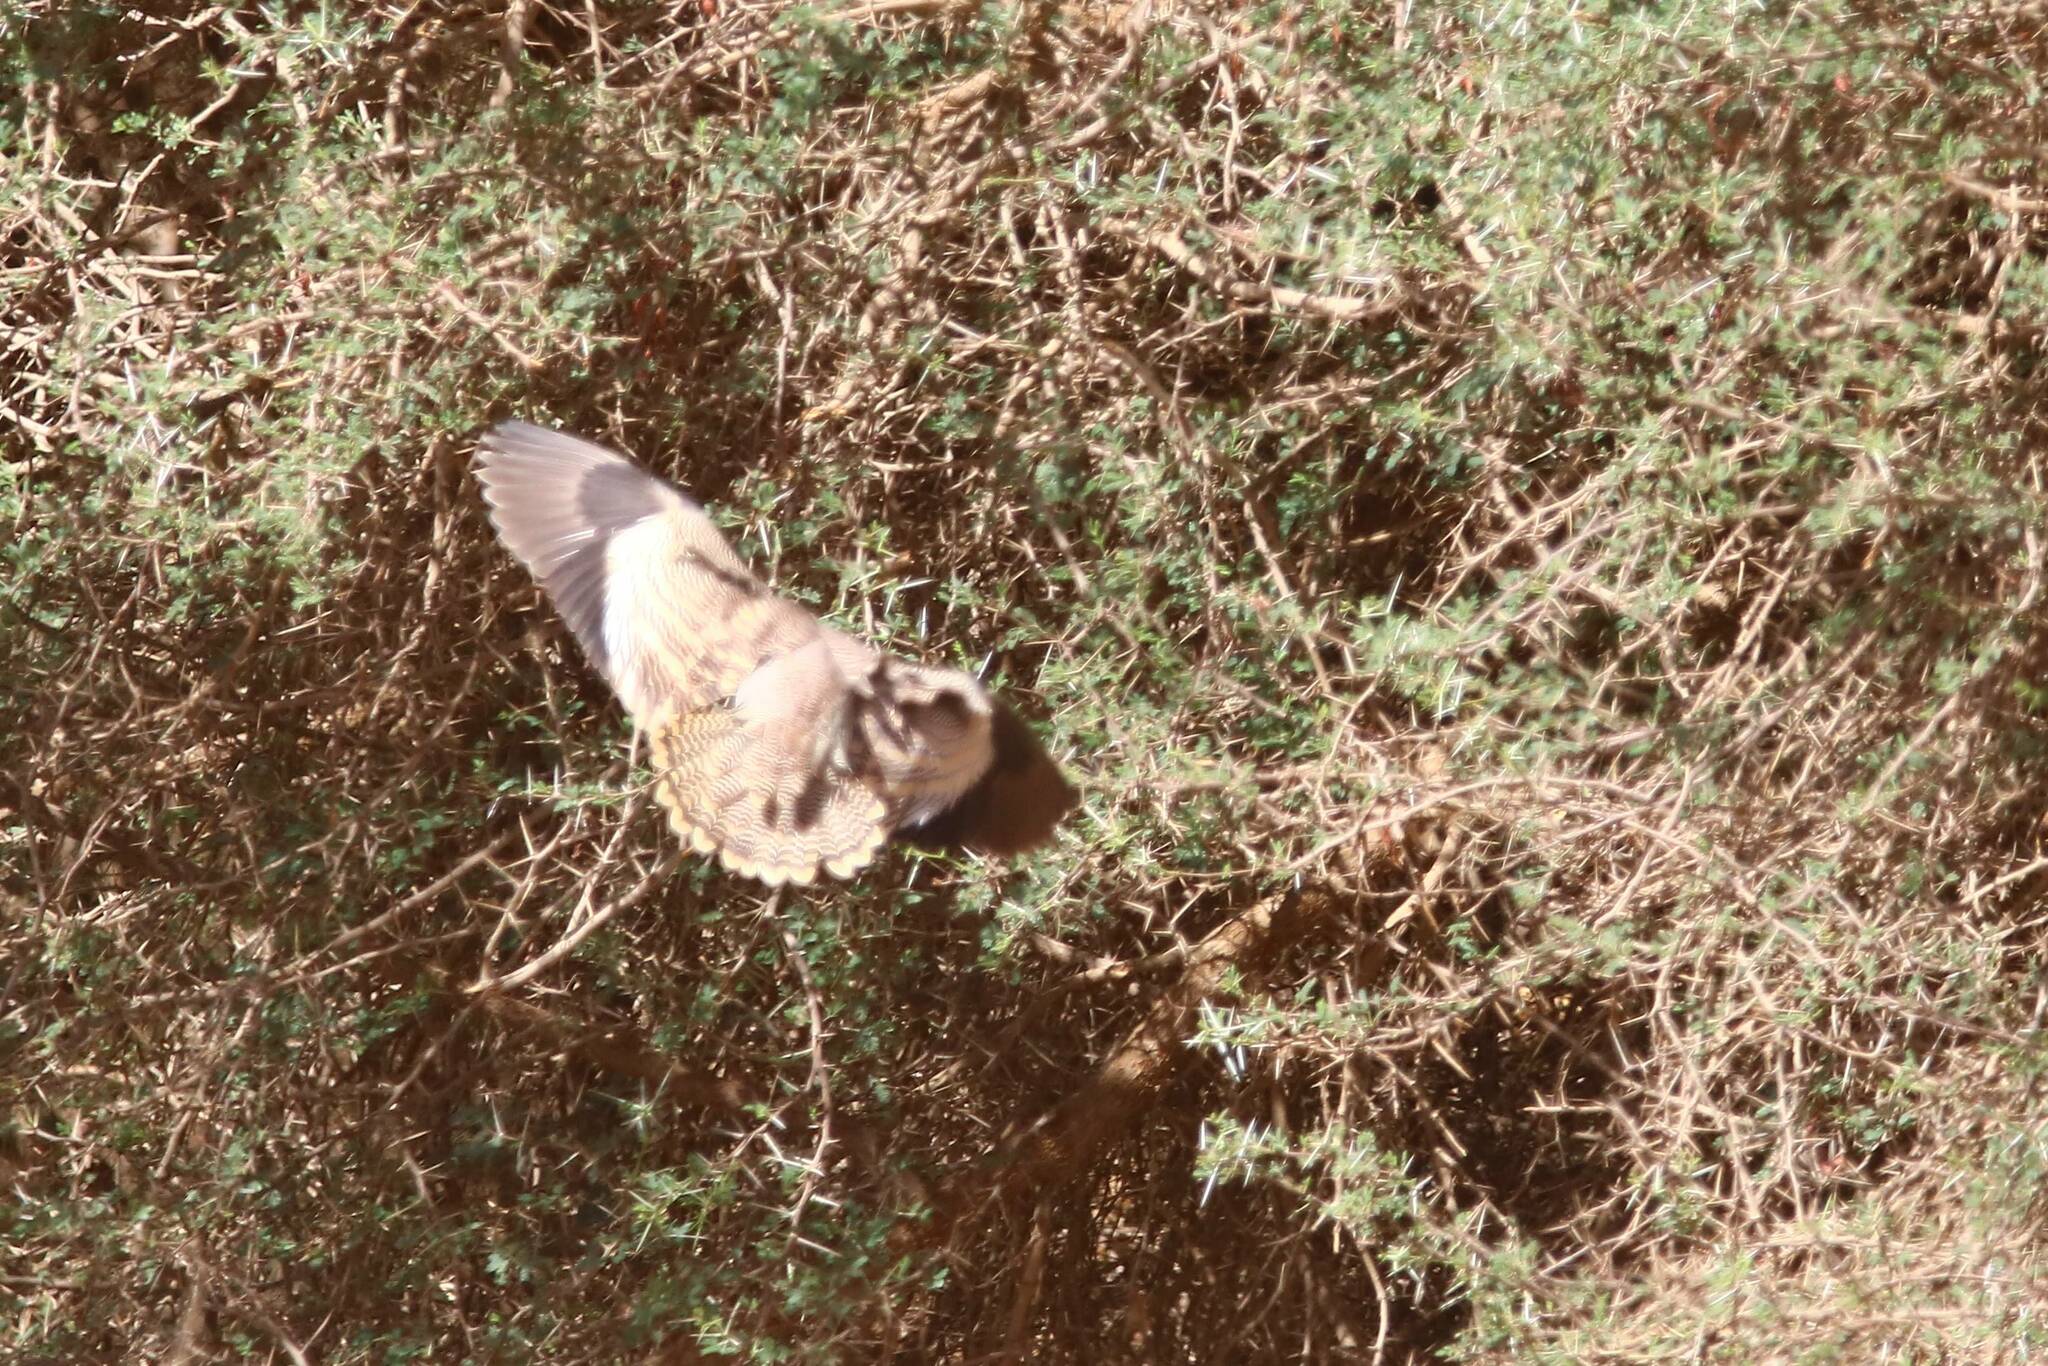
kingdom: Animalia
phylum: Chordata
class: Aves
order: Pteroclidiformes
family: Pteroclididae
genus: Pterocles
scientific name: Pterocles lichtensteinii
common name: Lichtenstein's sandgrouse
